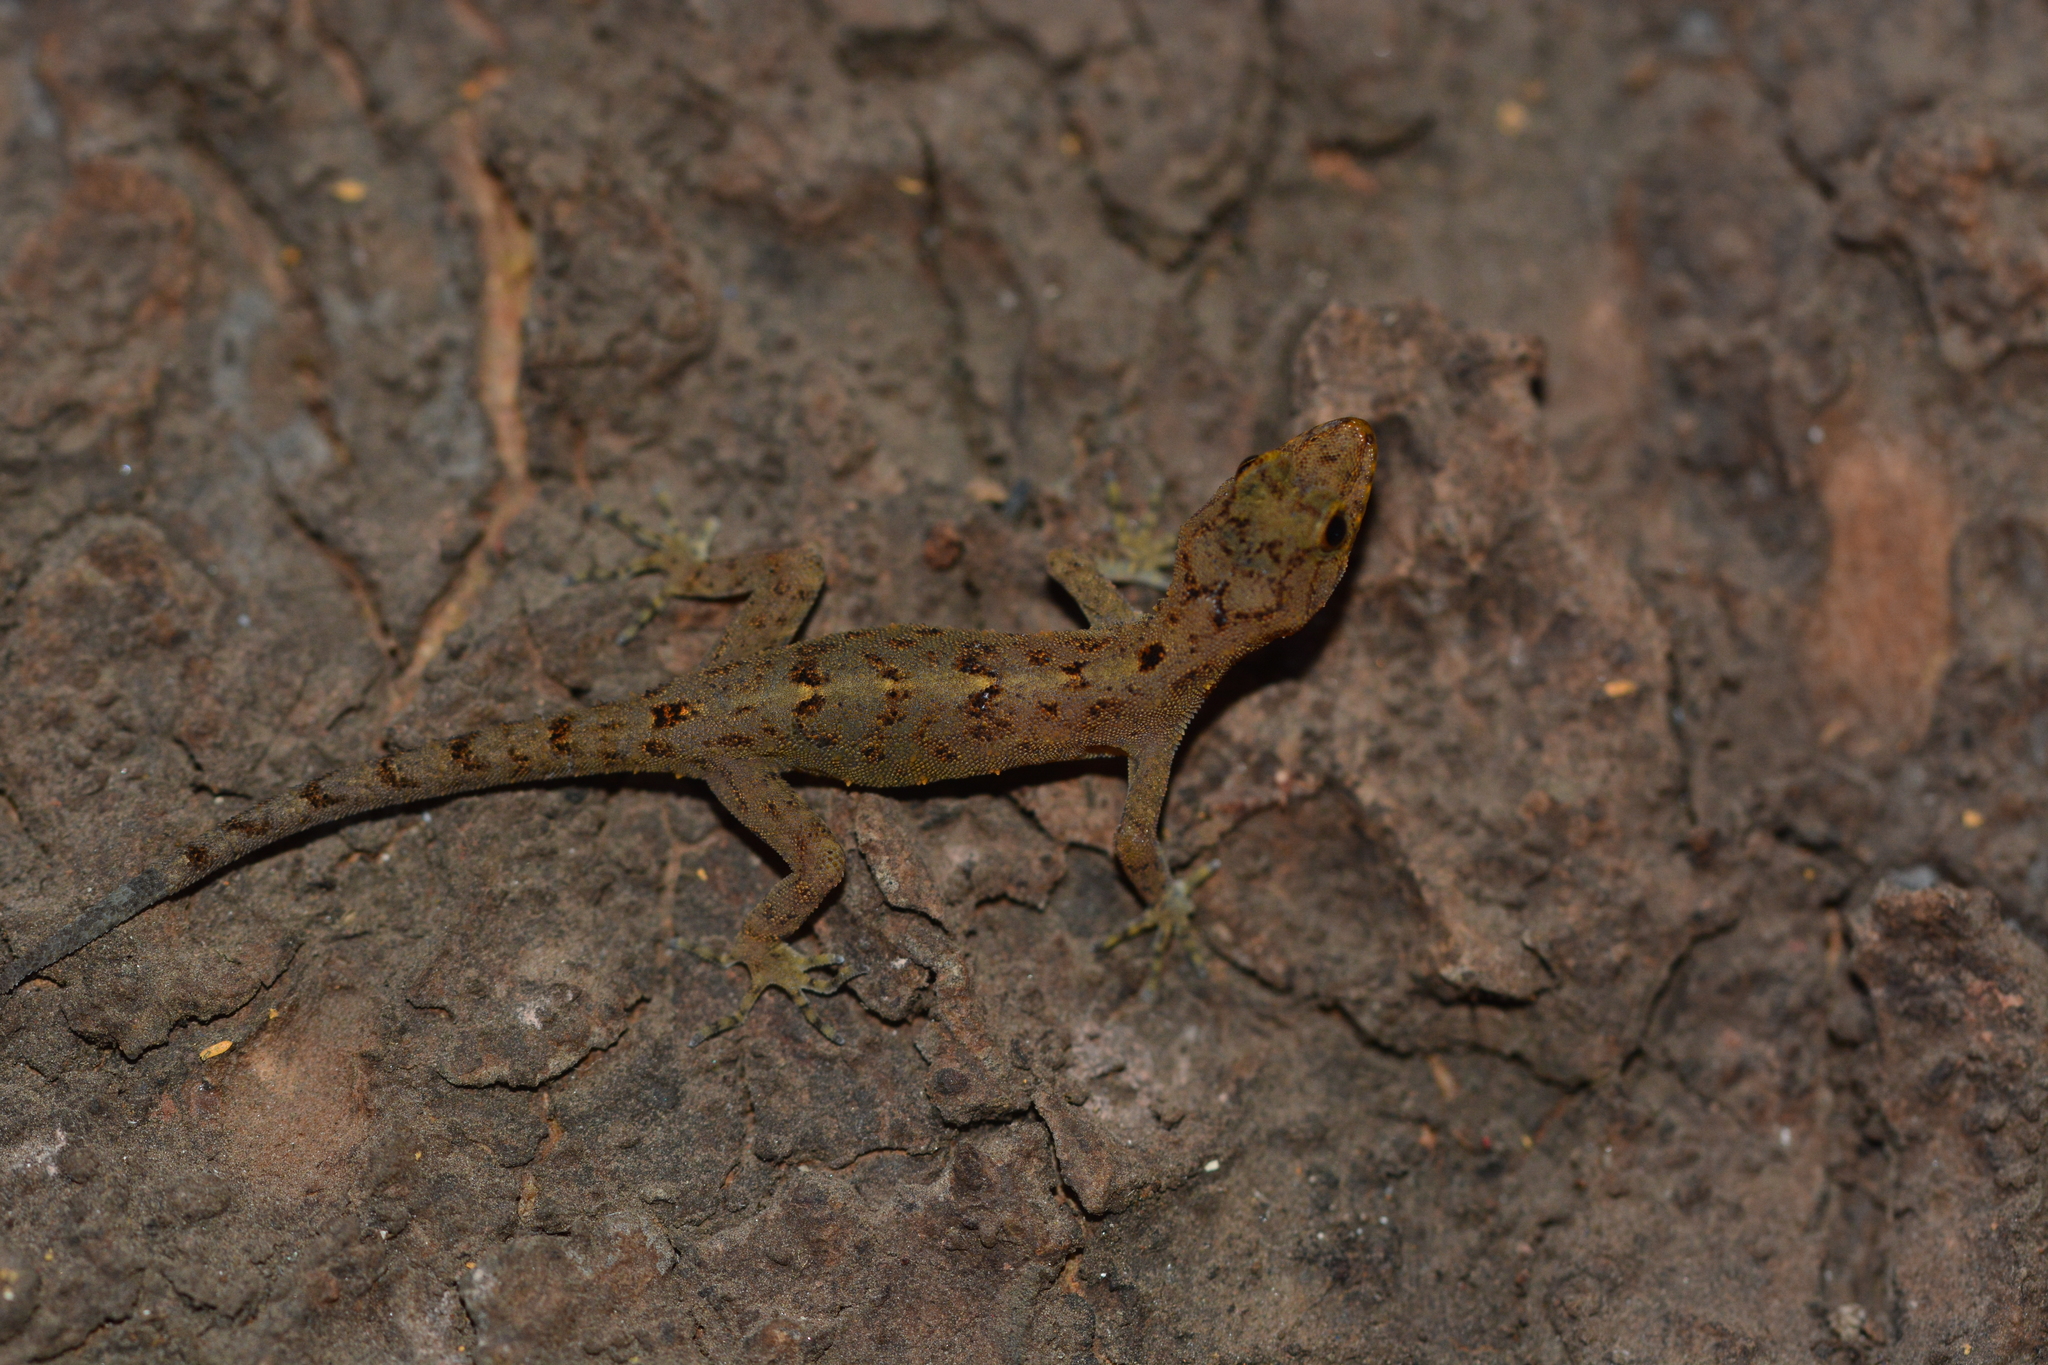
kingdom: Animalia
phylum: Chordata
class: Squamata
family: Gekkonidae
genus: Cnemaspis
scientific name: Cnemaspis ajijae
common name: Ajija’s day gecko
